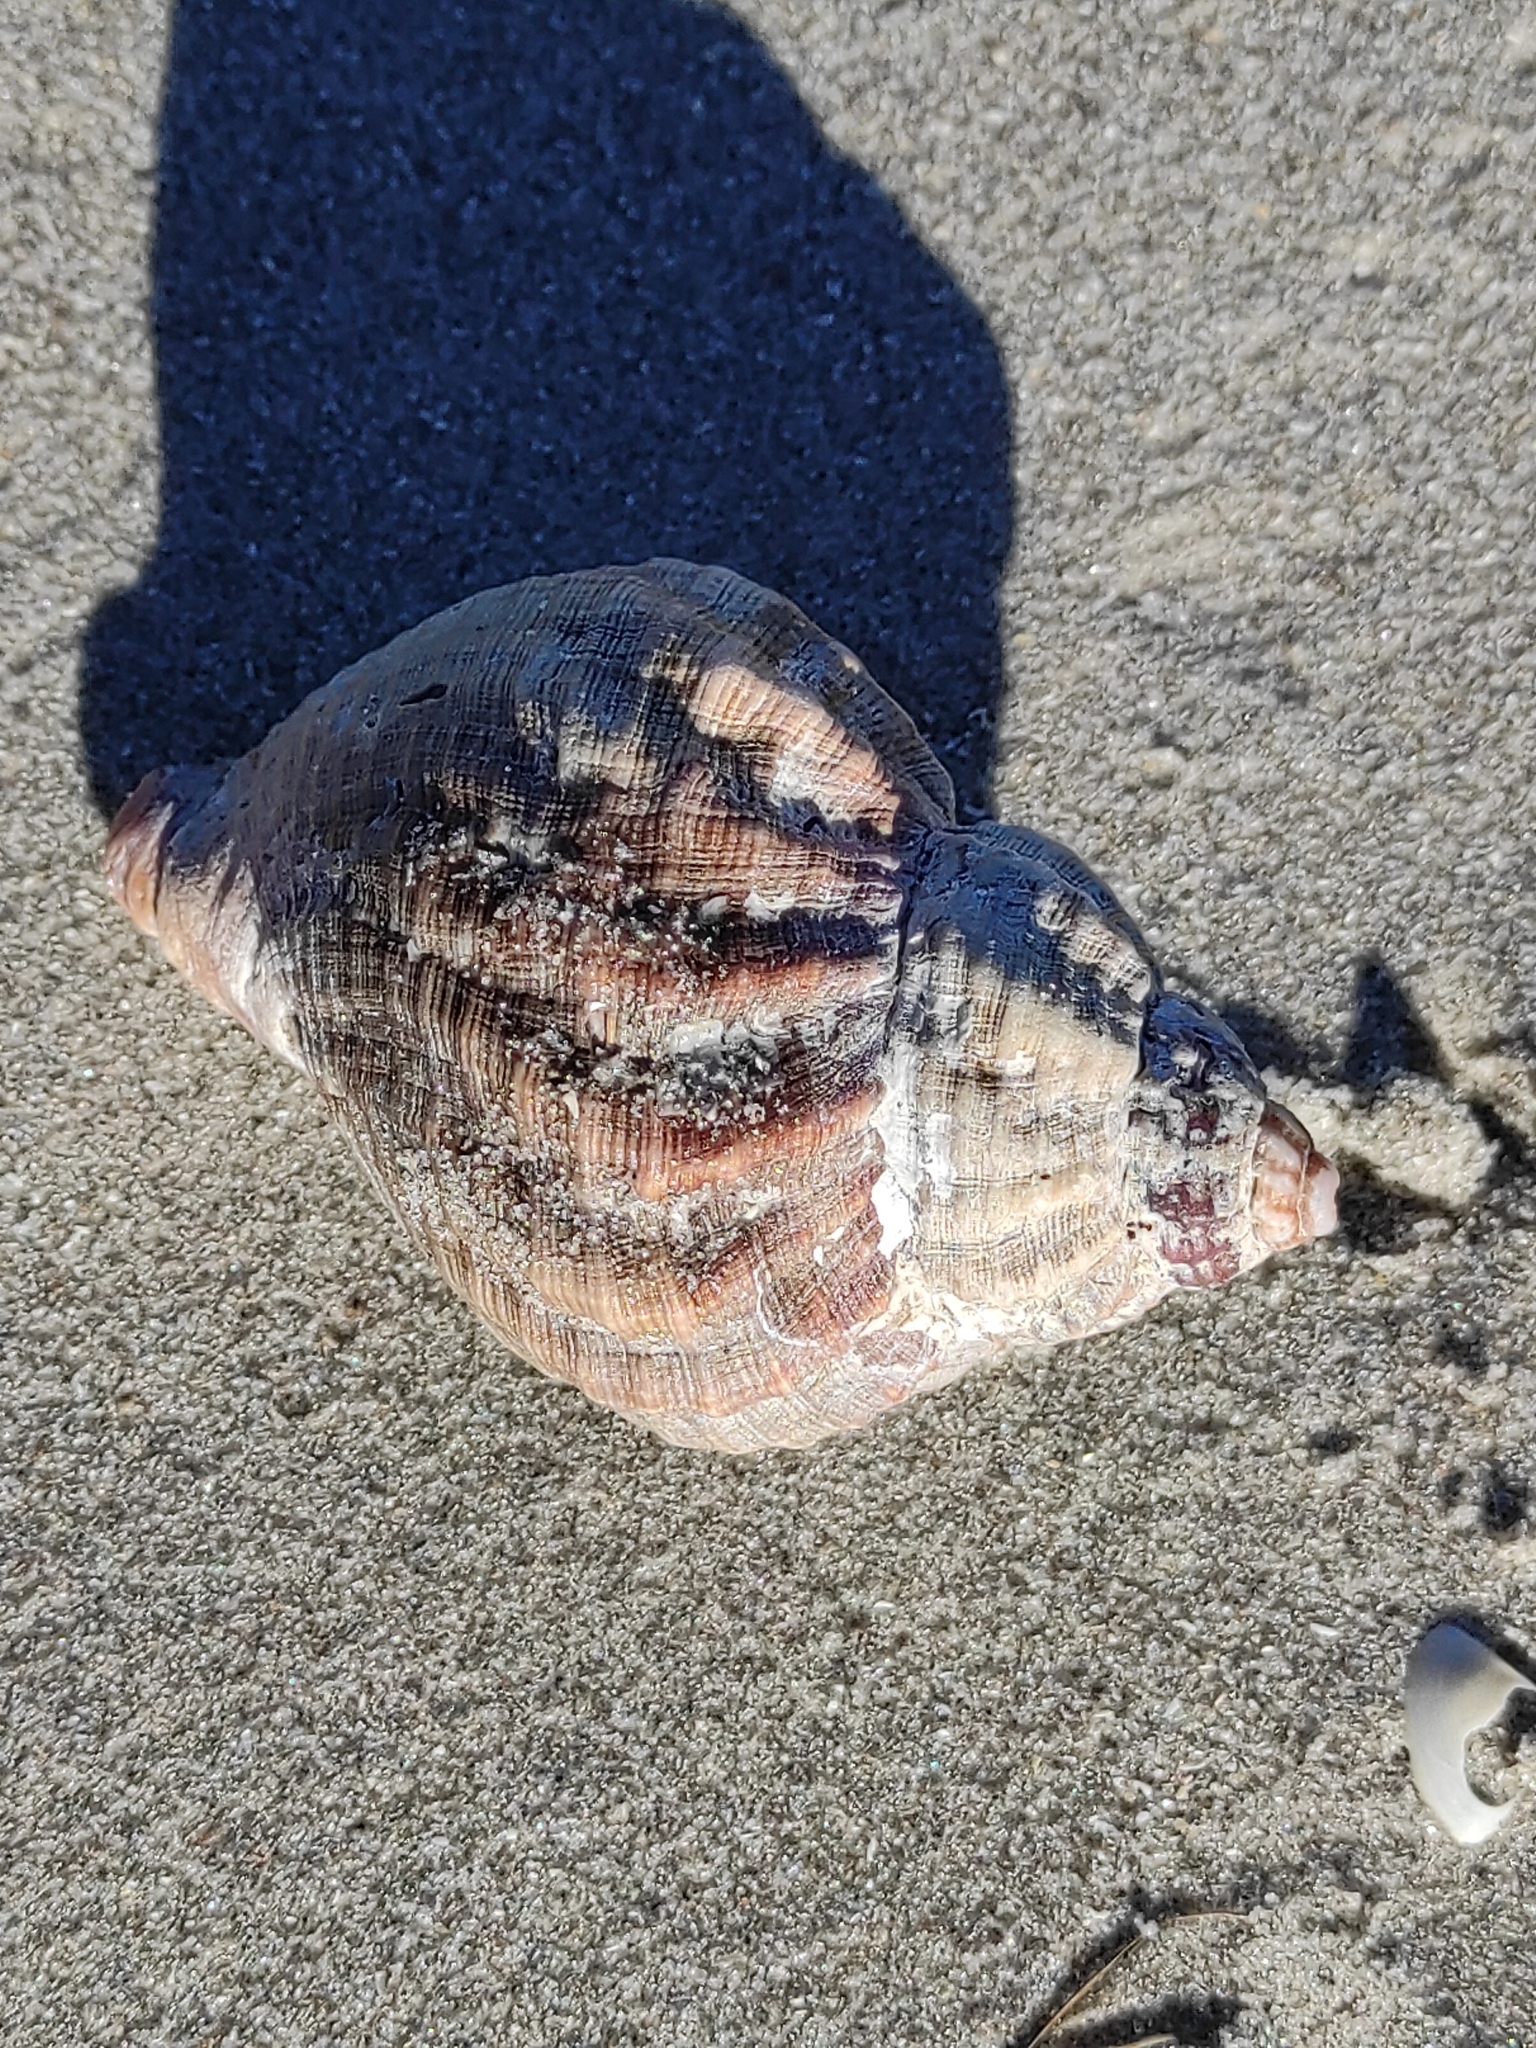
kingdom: Animalia
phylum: Mollusca
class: Gastropoda
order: Neogastropoda
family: Buccinidae
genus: Buccinum
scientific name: Buccinum undatum
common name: Common whelk
